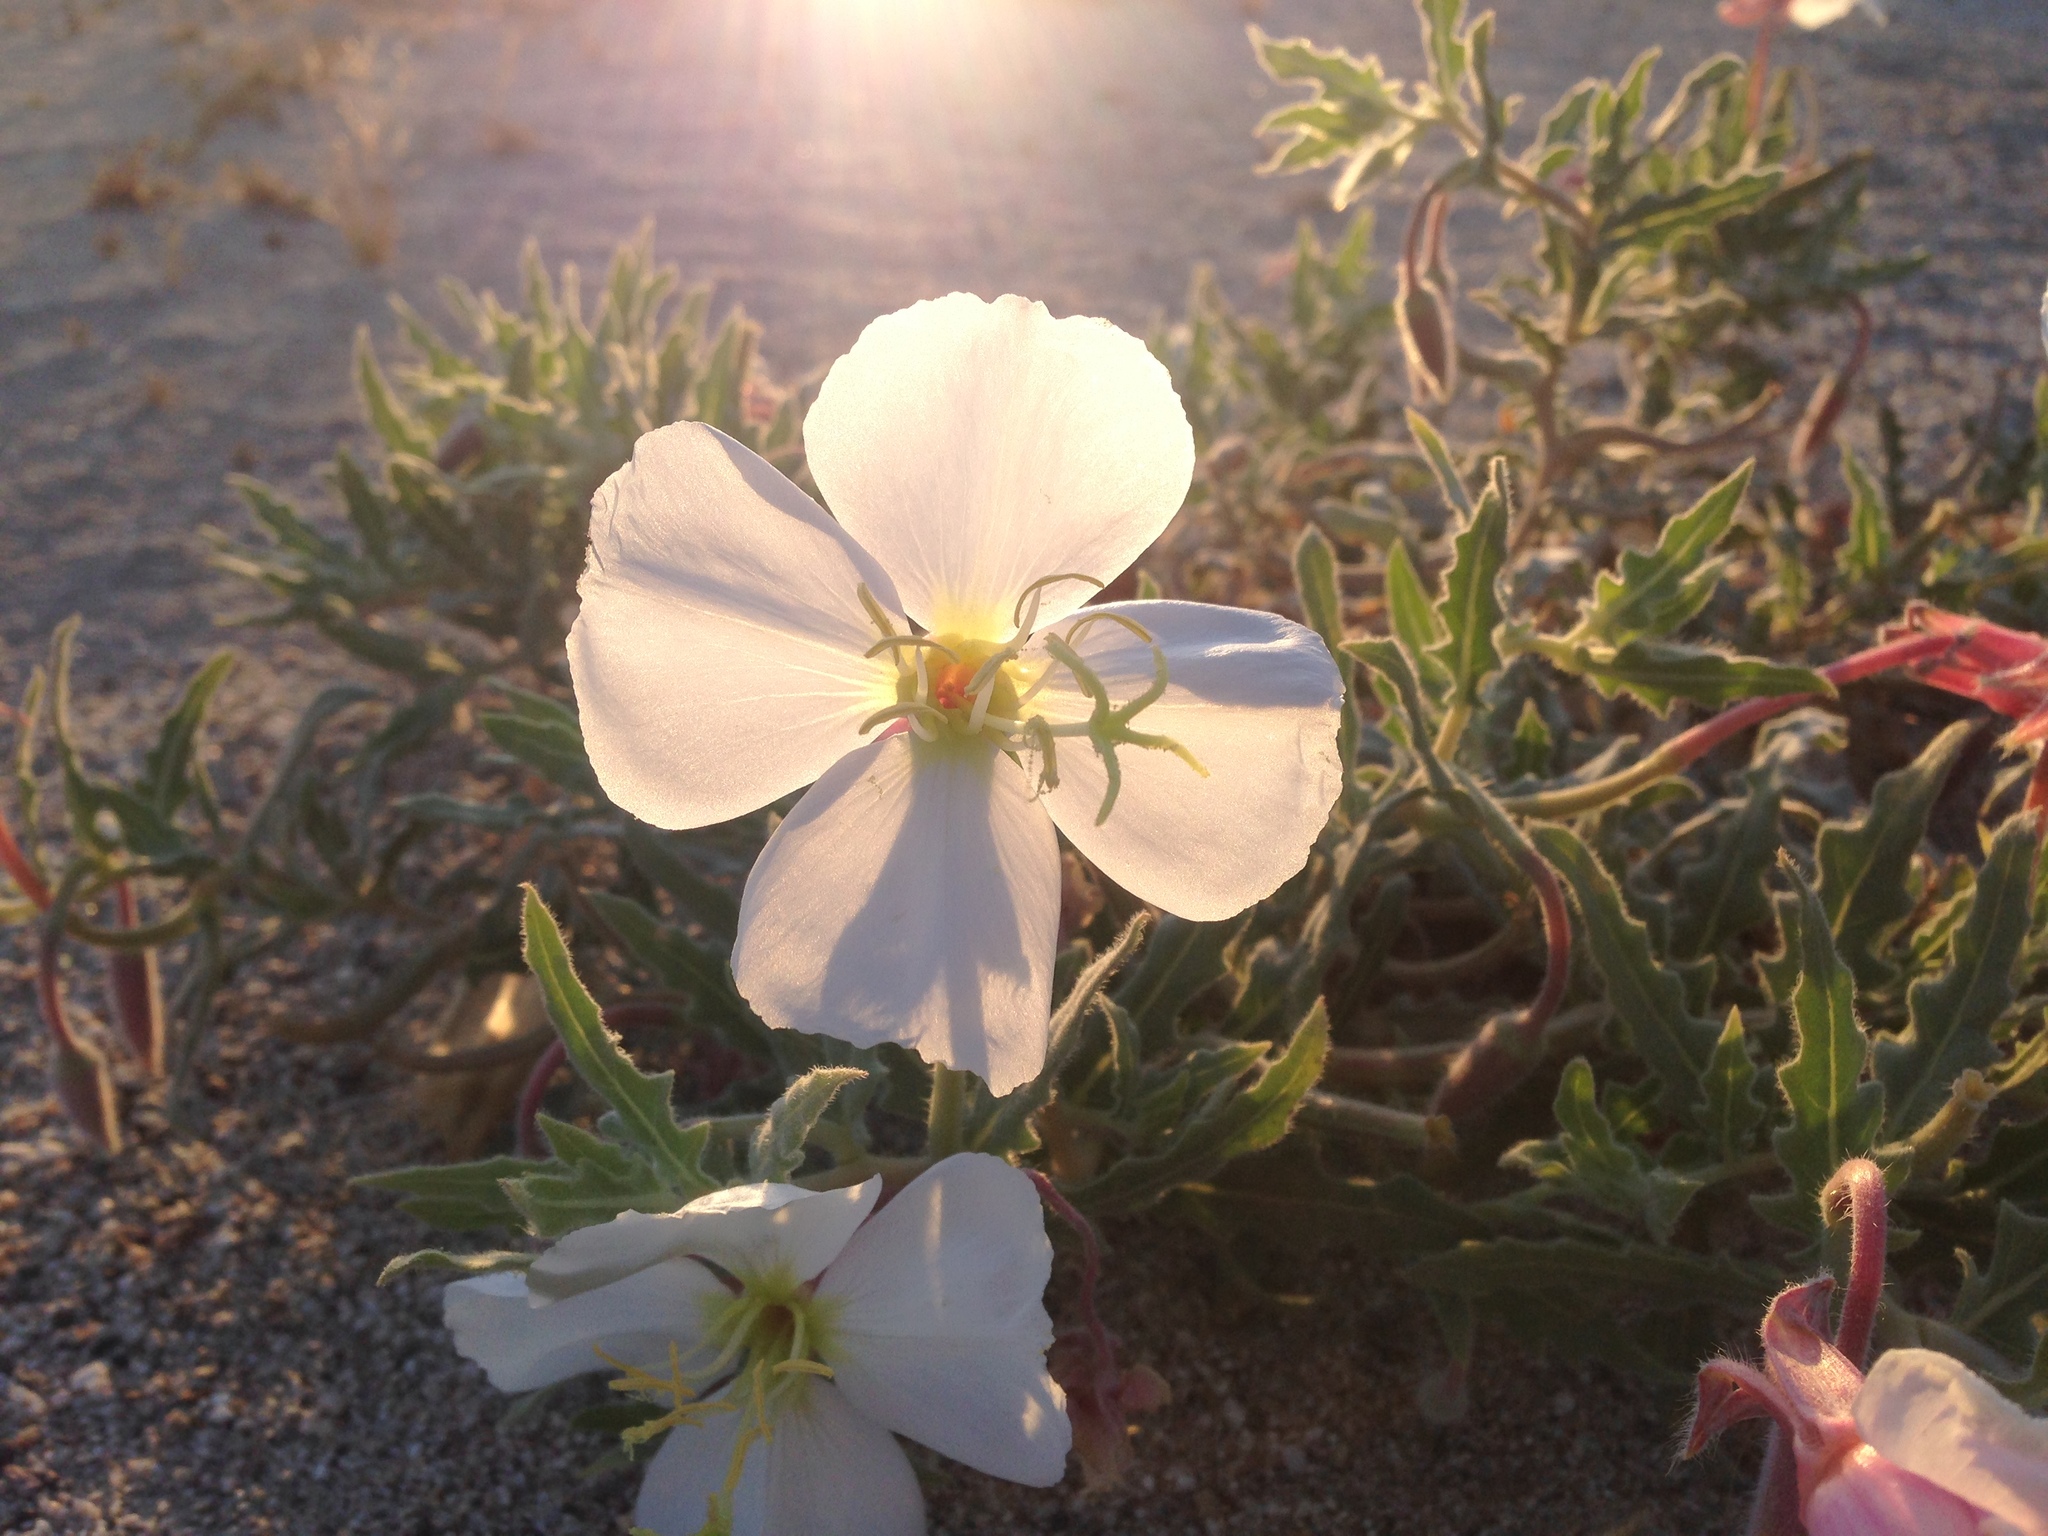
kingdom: Plantae
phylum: Tracheophyta
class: Magnoliopsida
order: Myrtales
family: Onagraceae
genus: Oenothera
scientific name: Oenothera californica
